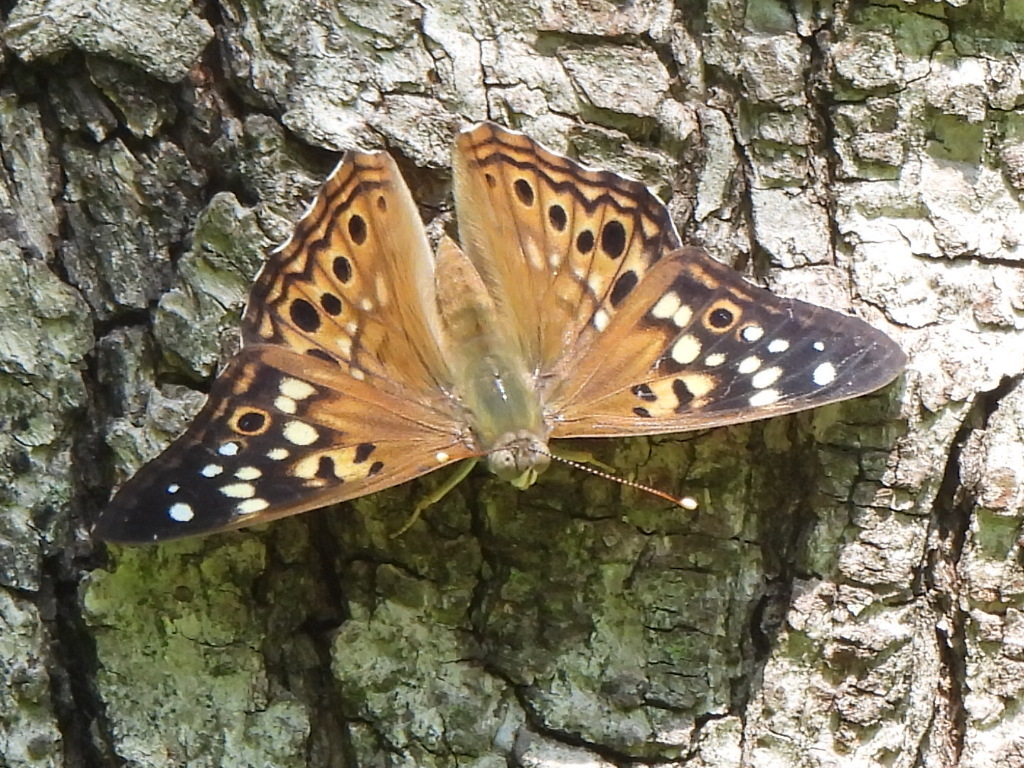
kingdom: Animalia
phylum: Arthropoda
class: Insecta
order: Lepidoptera
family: Nymphalidae
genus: Asterocampa
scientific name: Asterocampa celtis
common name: Hackberry emperor
